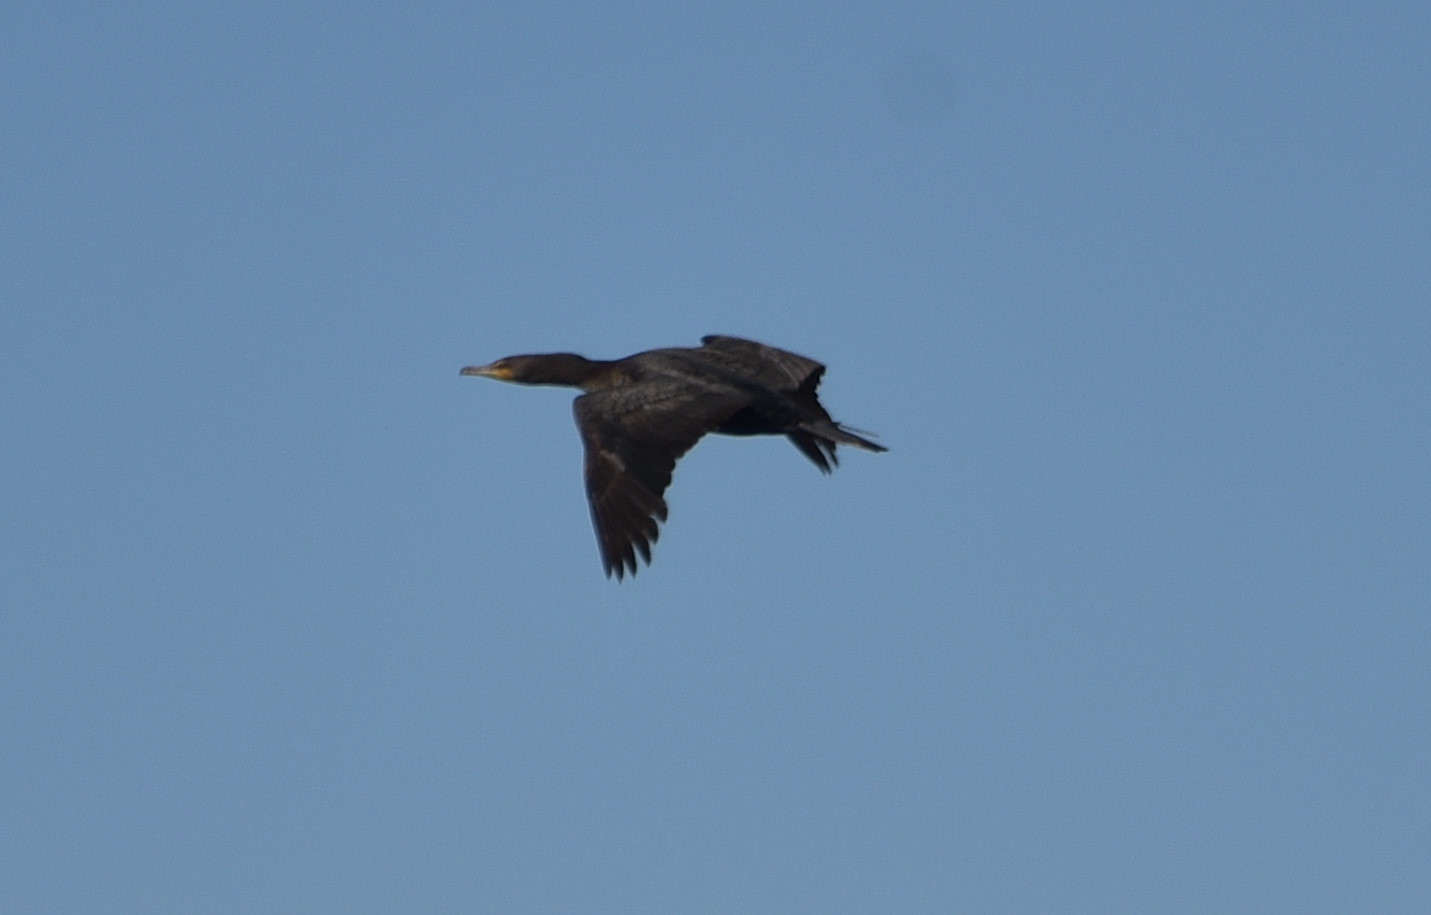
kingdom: Animalia
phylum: Chordata
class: Aves
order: Suliformes
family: Phalacrocoracidae
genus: Phalacrocorax
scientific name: Phalacrocorax auritus
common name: Double-crested cormorant
